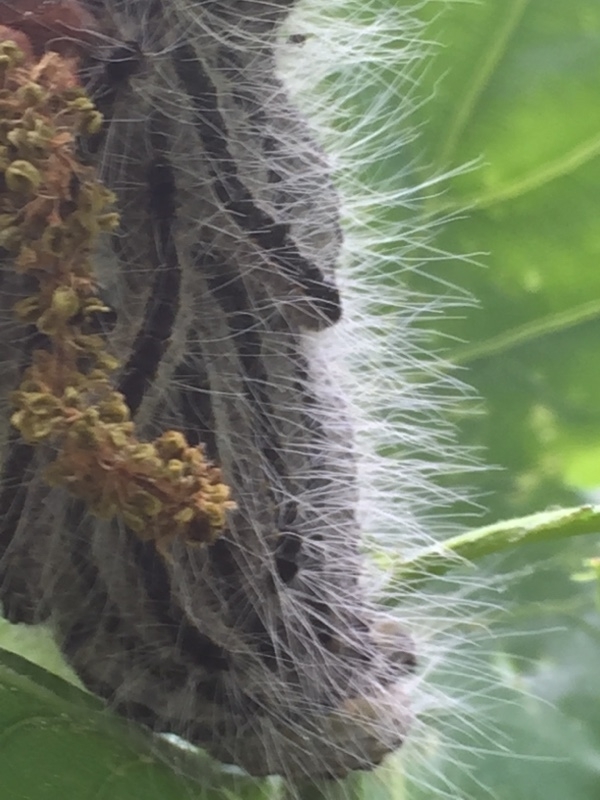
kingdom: Animalia
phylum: Arthropoda
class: Insecta
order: Lepidoptera
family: Notodontidae
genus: Thaumetopoea
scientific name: Thaumetopoea processionea
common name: Oak processionea
